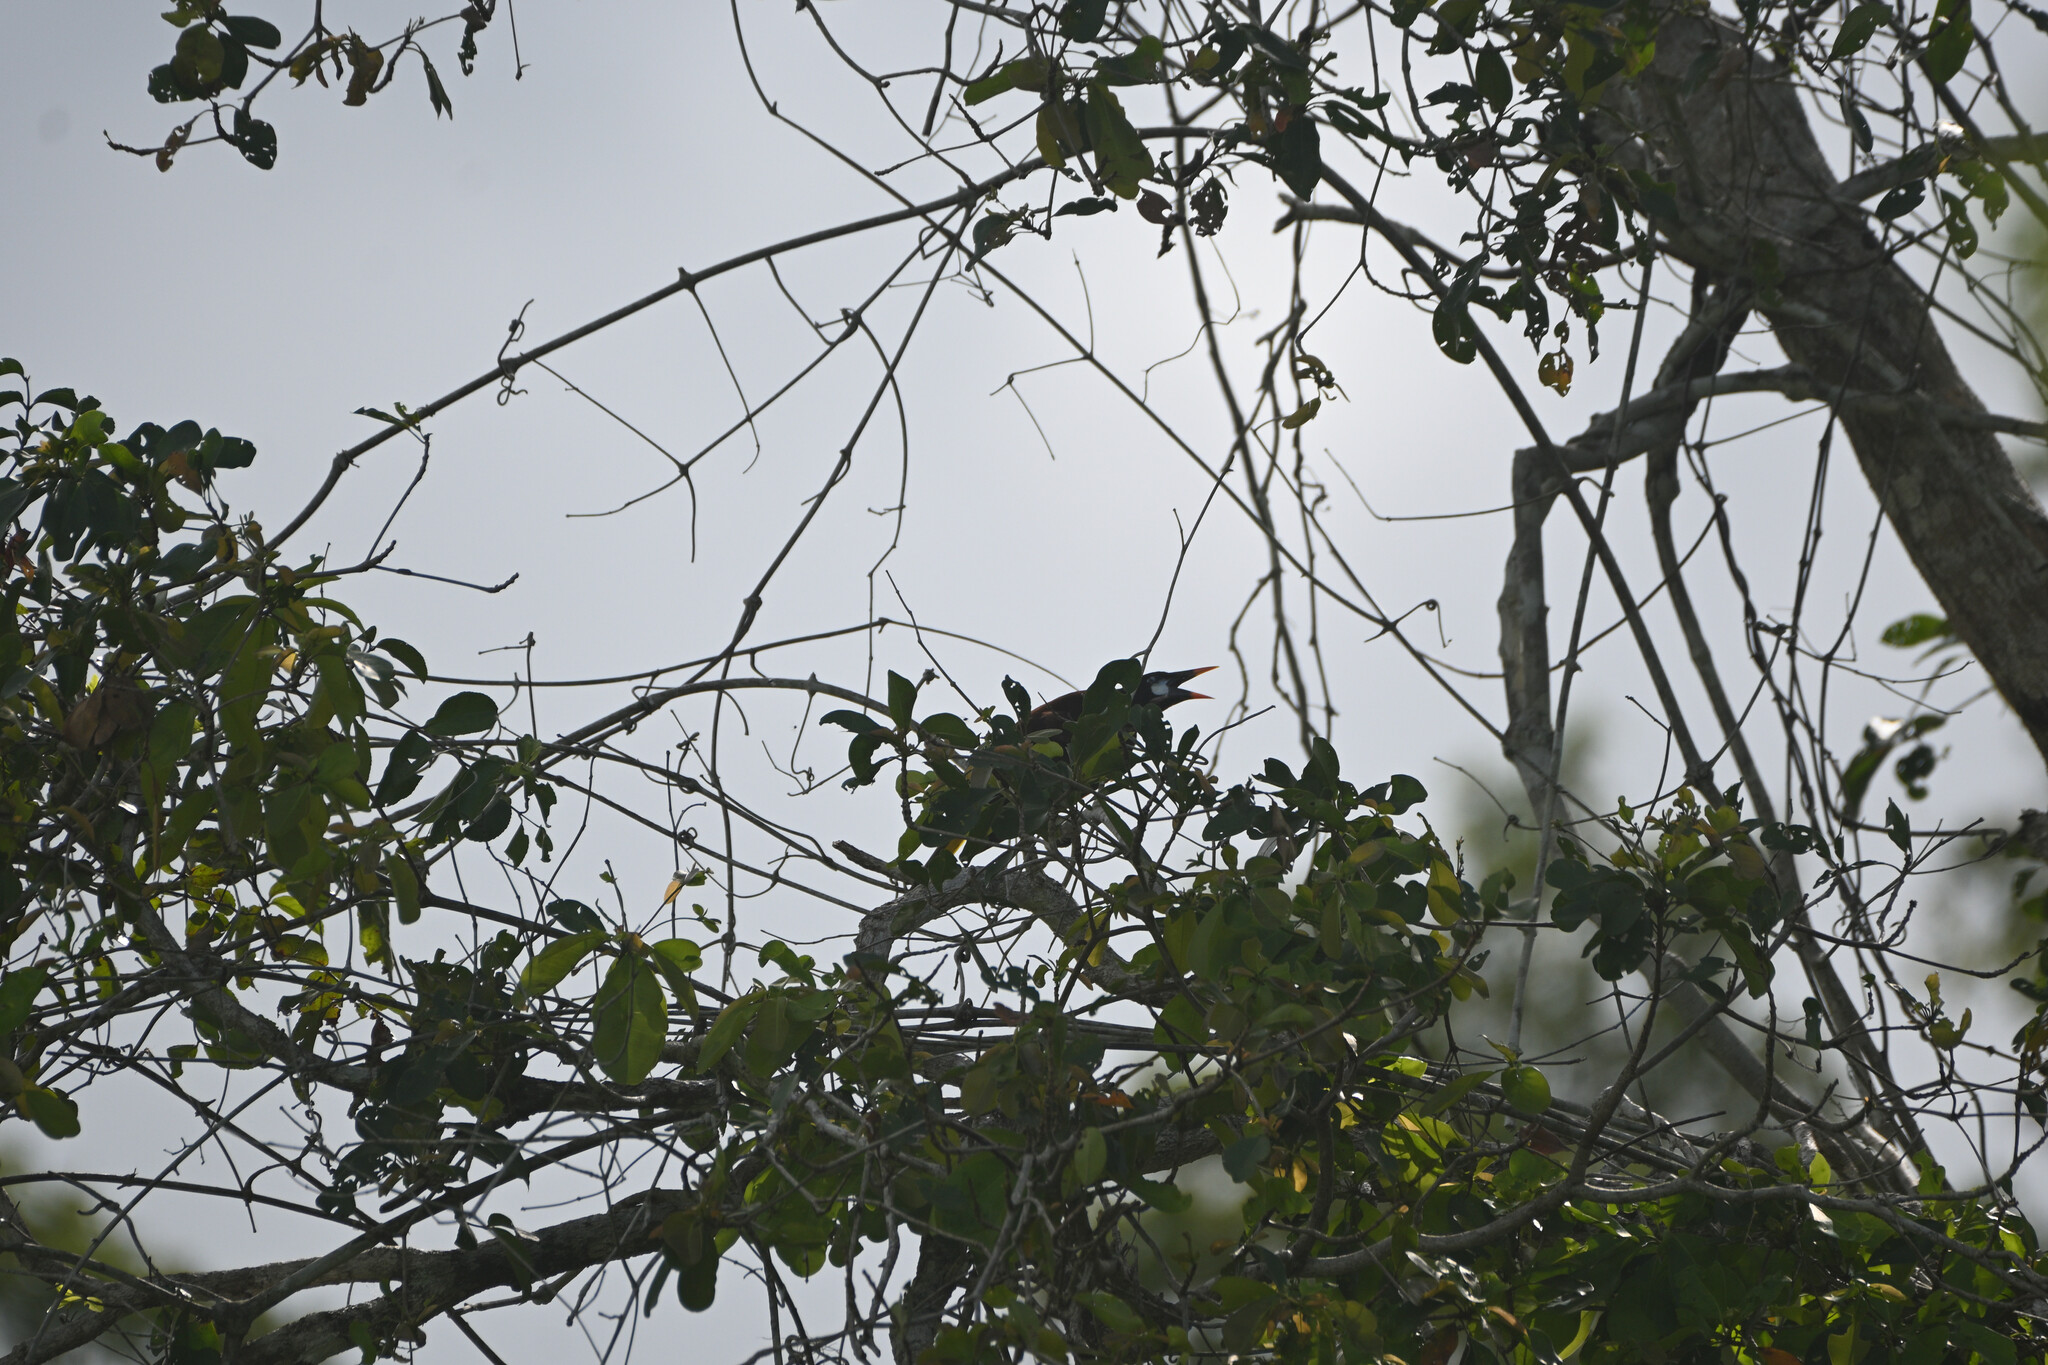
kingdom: Animalia
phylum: Chordata
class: Aves
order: Passeriformes
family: Icteridae
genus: Psarocolius
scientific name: Psarocolius montezuma
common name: Montezuma oropendola
